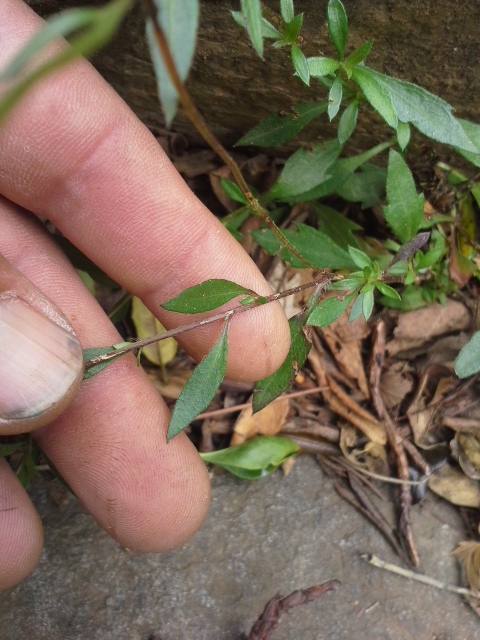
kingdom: Plantae
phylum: Tracheophyta
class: Magnoliopsida
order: Asterales
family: Asteraceae
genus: Erigeron
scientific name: Erigeron karvinskianus
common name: Mexican fleabane
